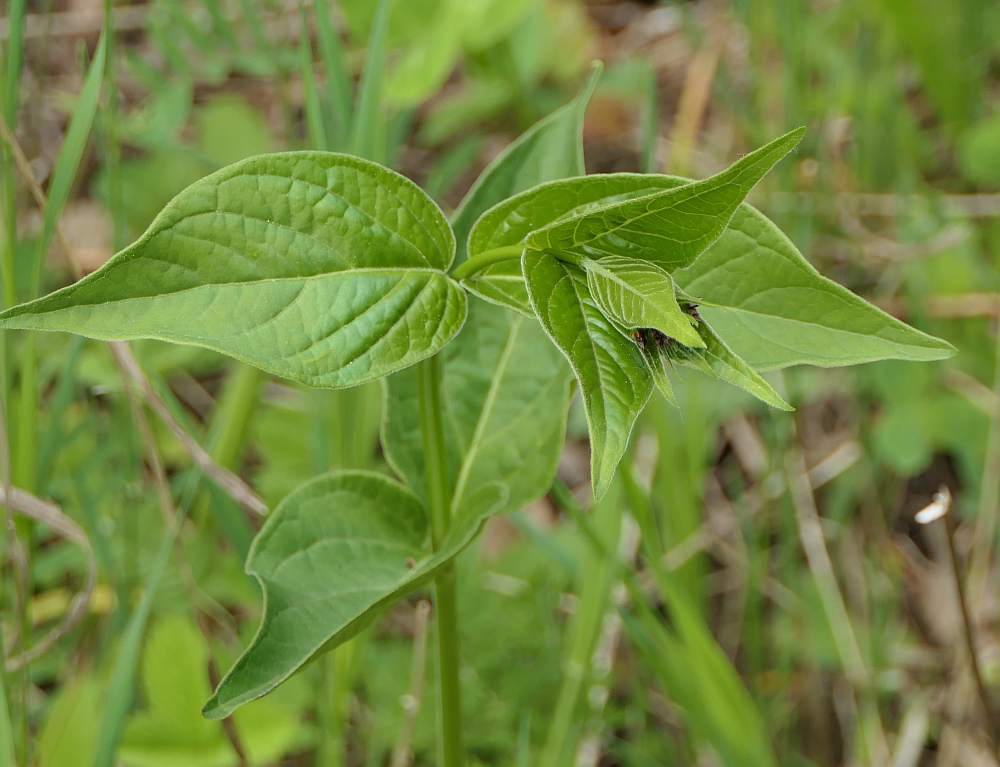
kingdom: Plantae
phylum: Tracheophyta
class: Magnoliopsida
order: Gentianales
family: Apocynaceae
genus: Vincetoxicum
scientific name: Vincetoxicum rossicum
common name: Dog-strangling vine
